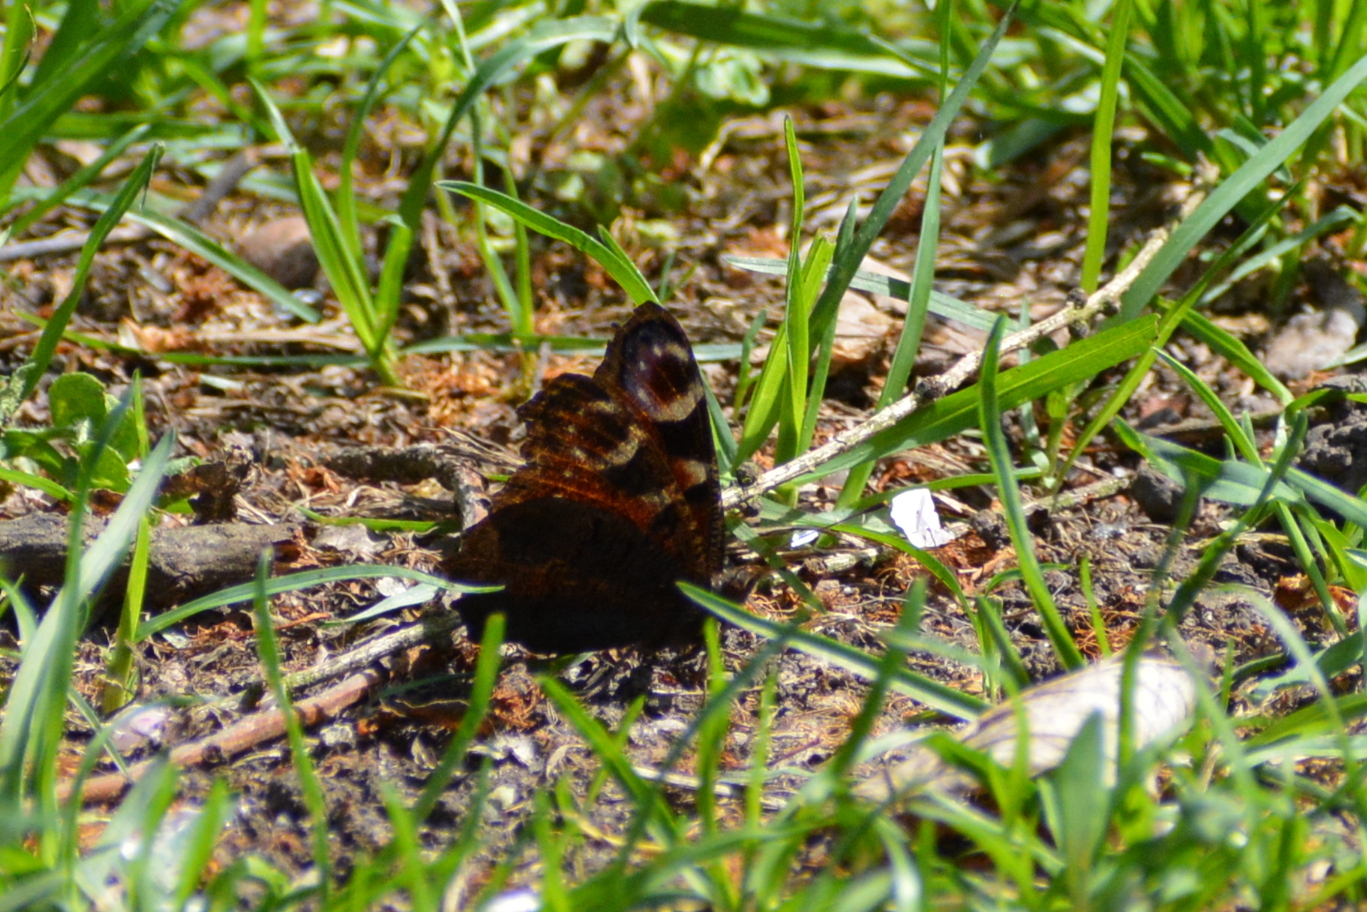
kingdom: Animalia
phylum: Arthropoda
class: Insecta
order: Lepidoptera
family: Nymphalidae
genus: Aglais
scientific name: Aglais io
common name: Peacock
